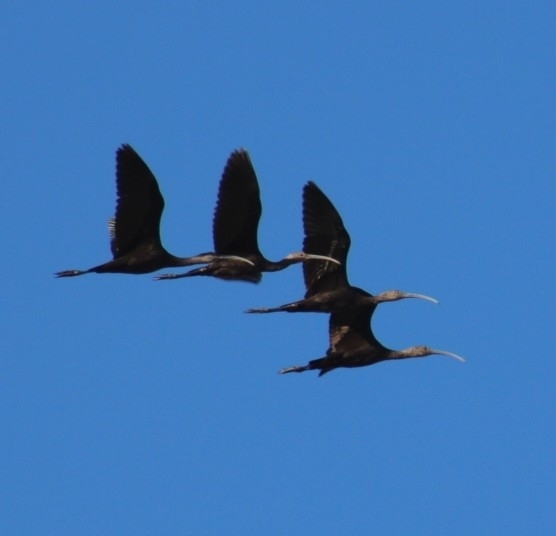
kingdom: Animalia
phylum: Chordata
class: Aves
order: Pelecaniformes
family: Threskiornithidae
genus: Plegadis
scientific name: Plegadis chihi
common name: White-faced ibis
